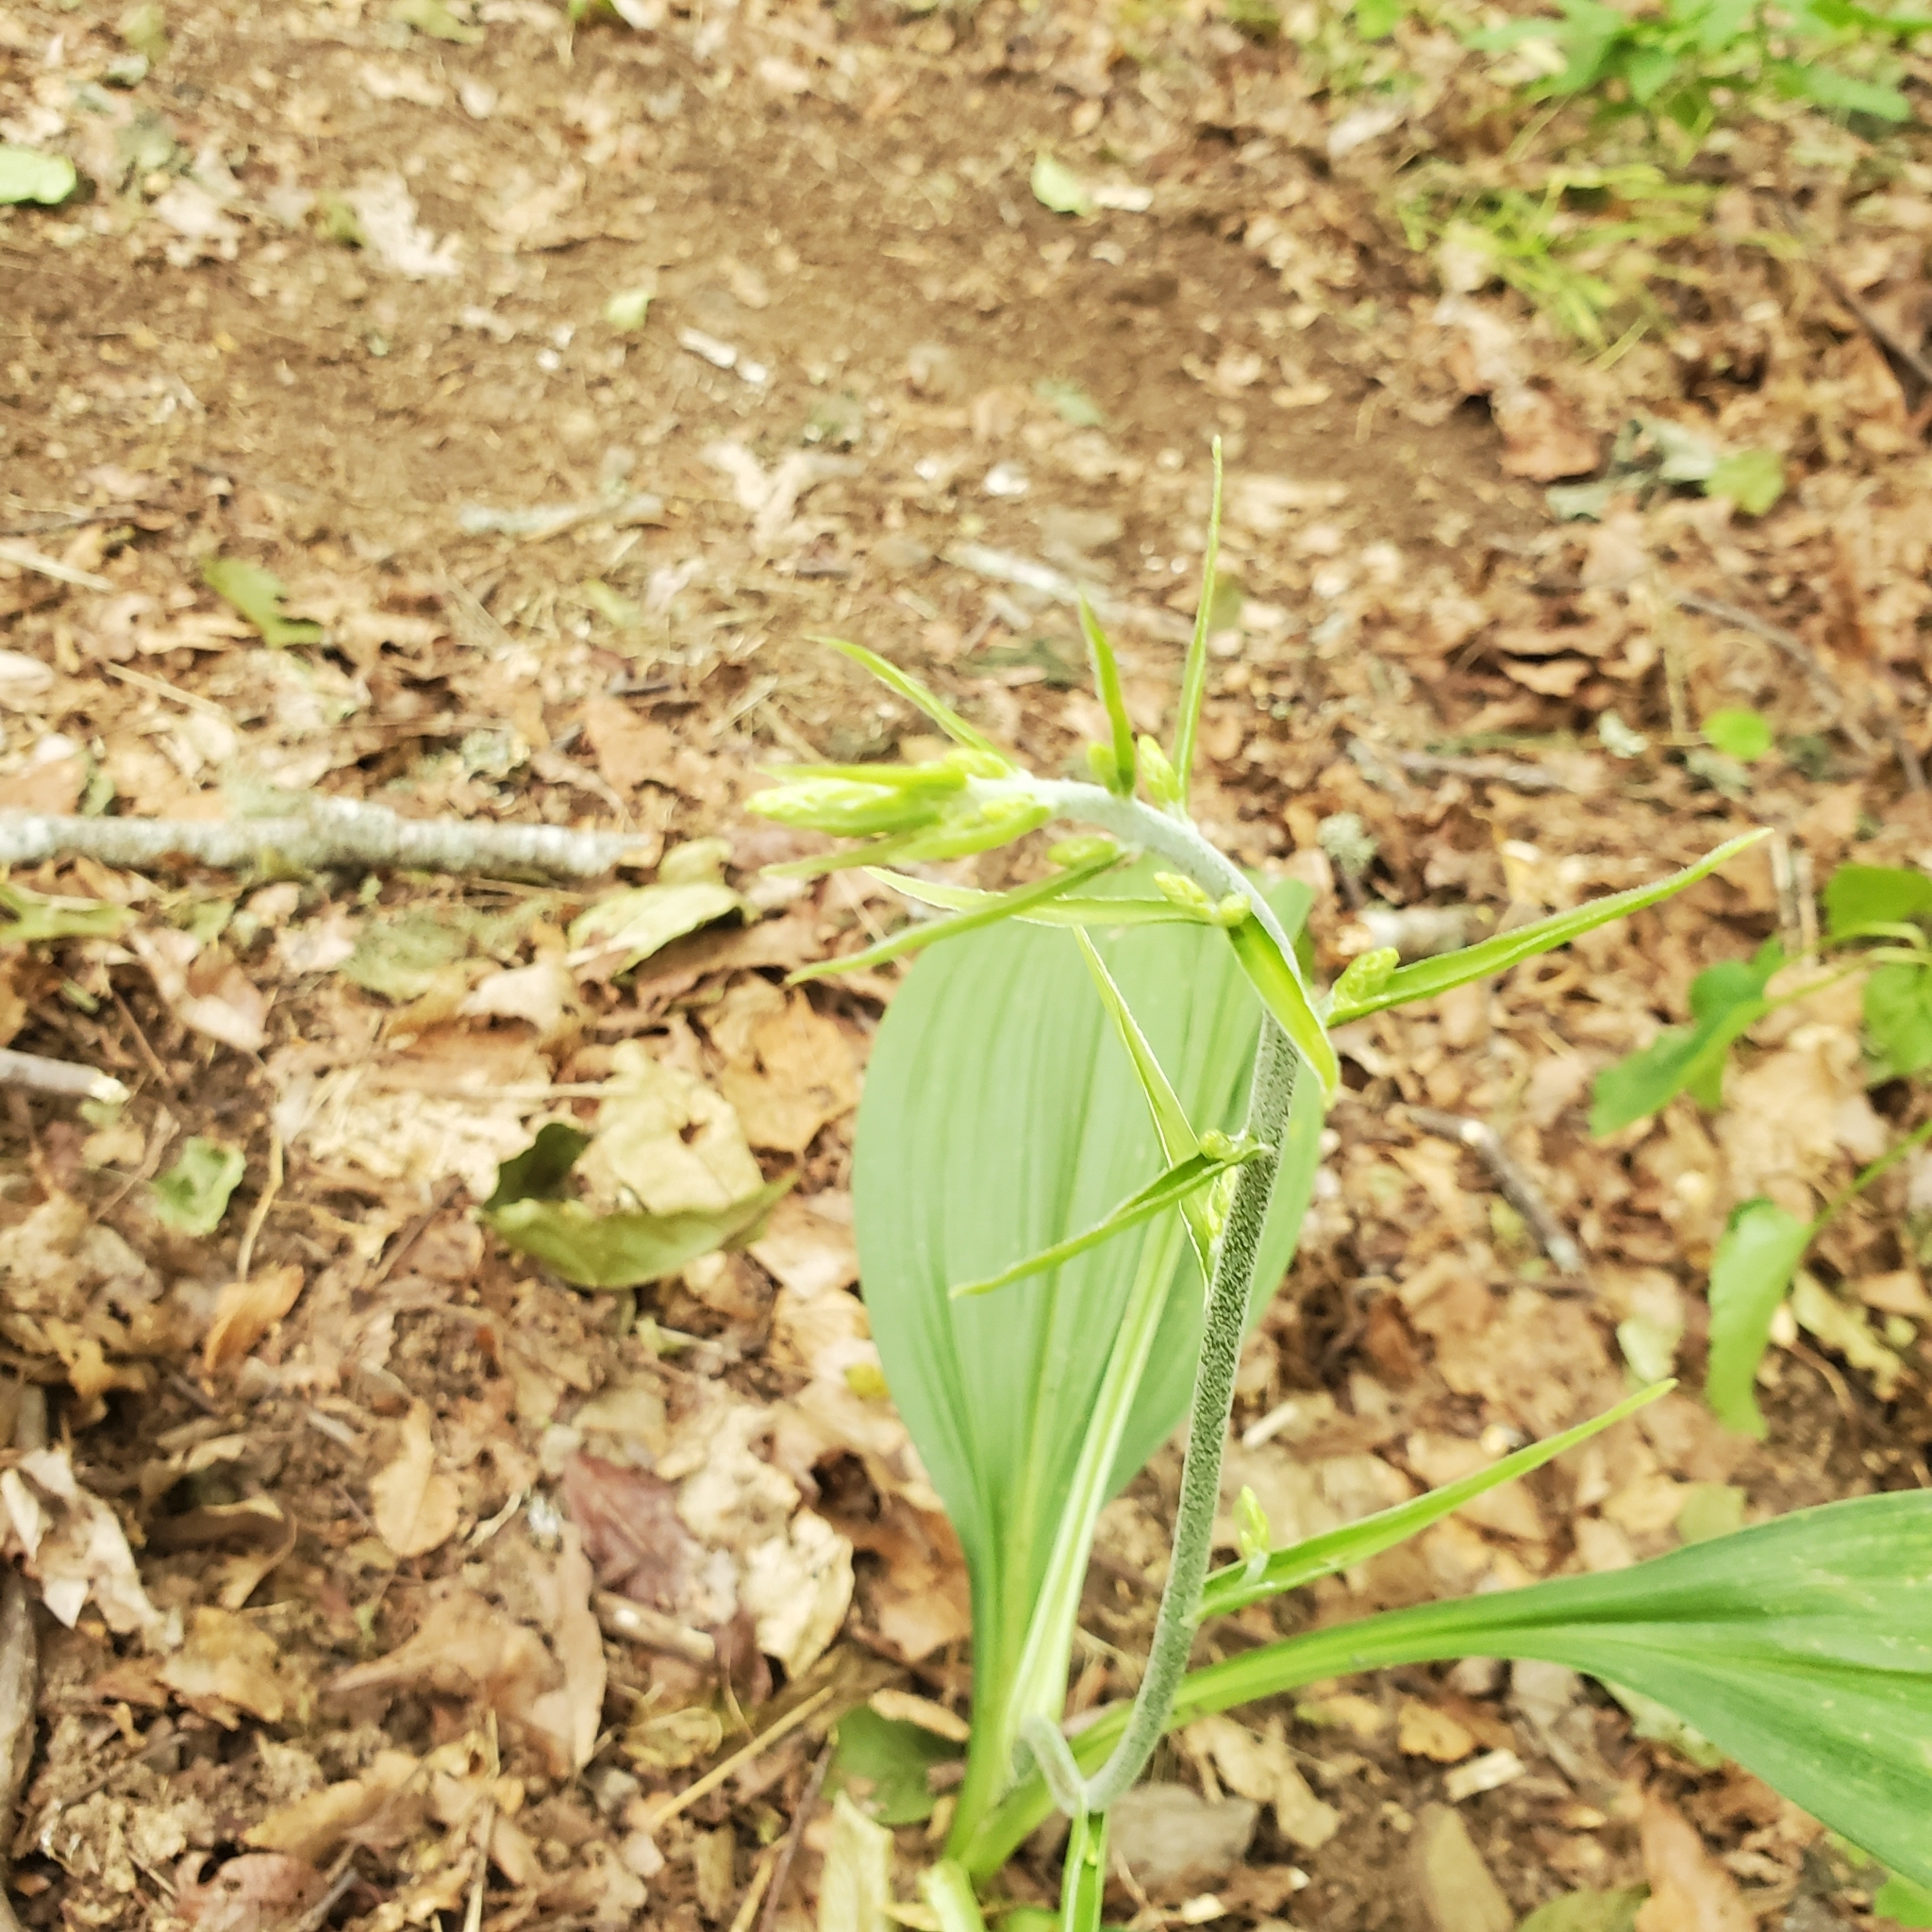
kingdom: Plantae
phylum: Tracheophyta
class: Liliopsida
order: Liliales
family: Melanthiaceae
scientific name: Melanthiaceae
